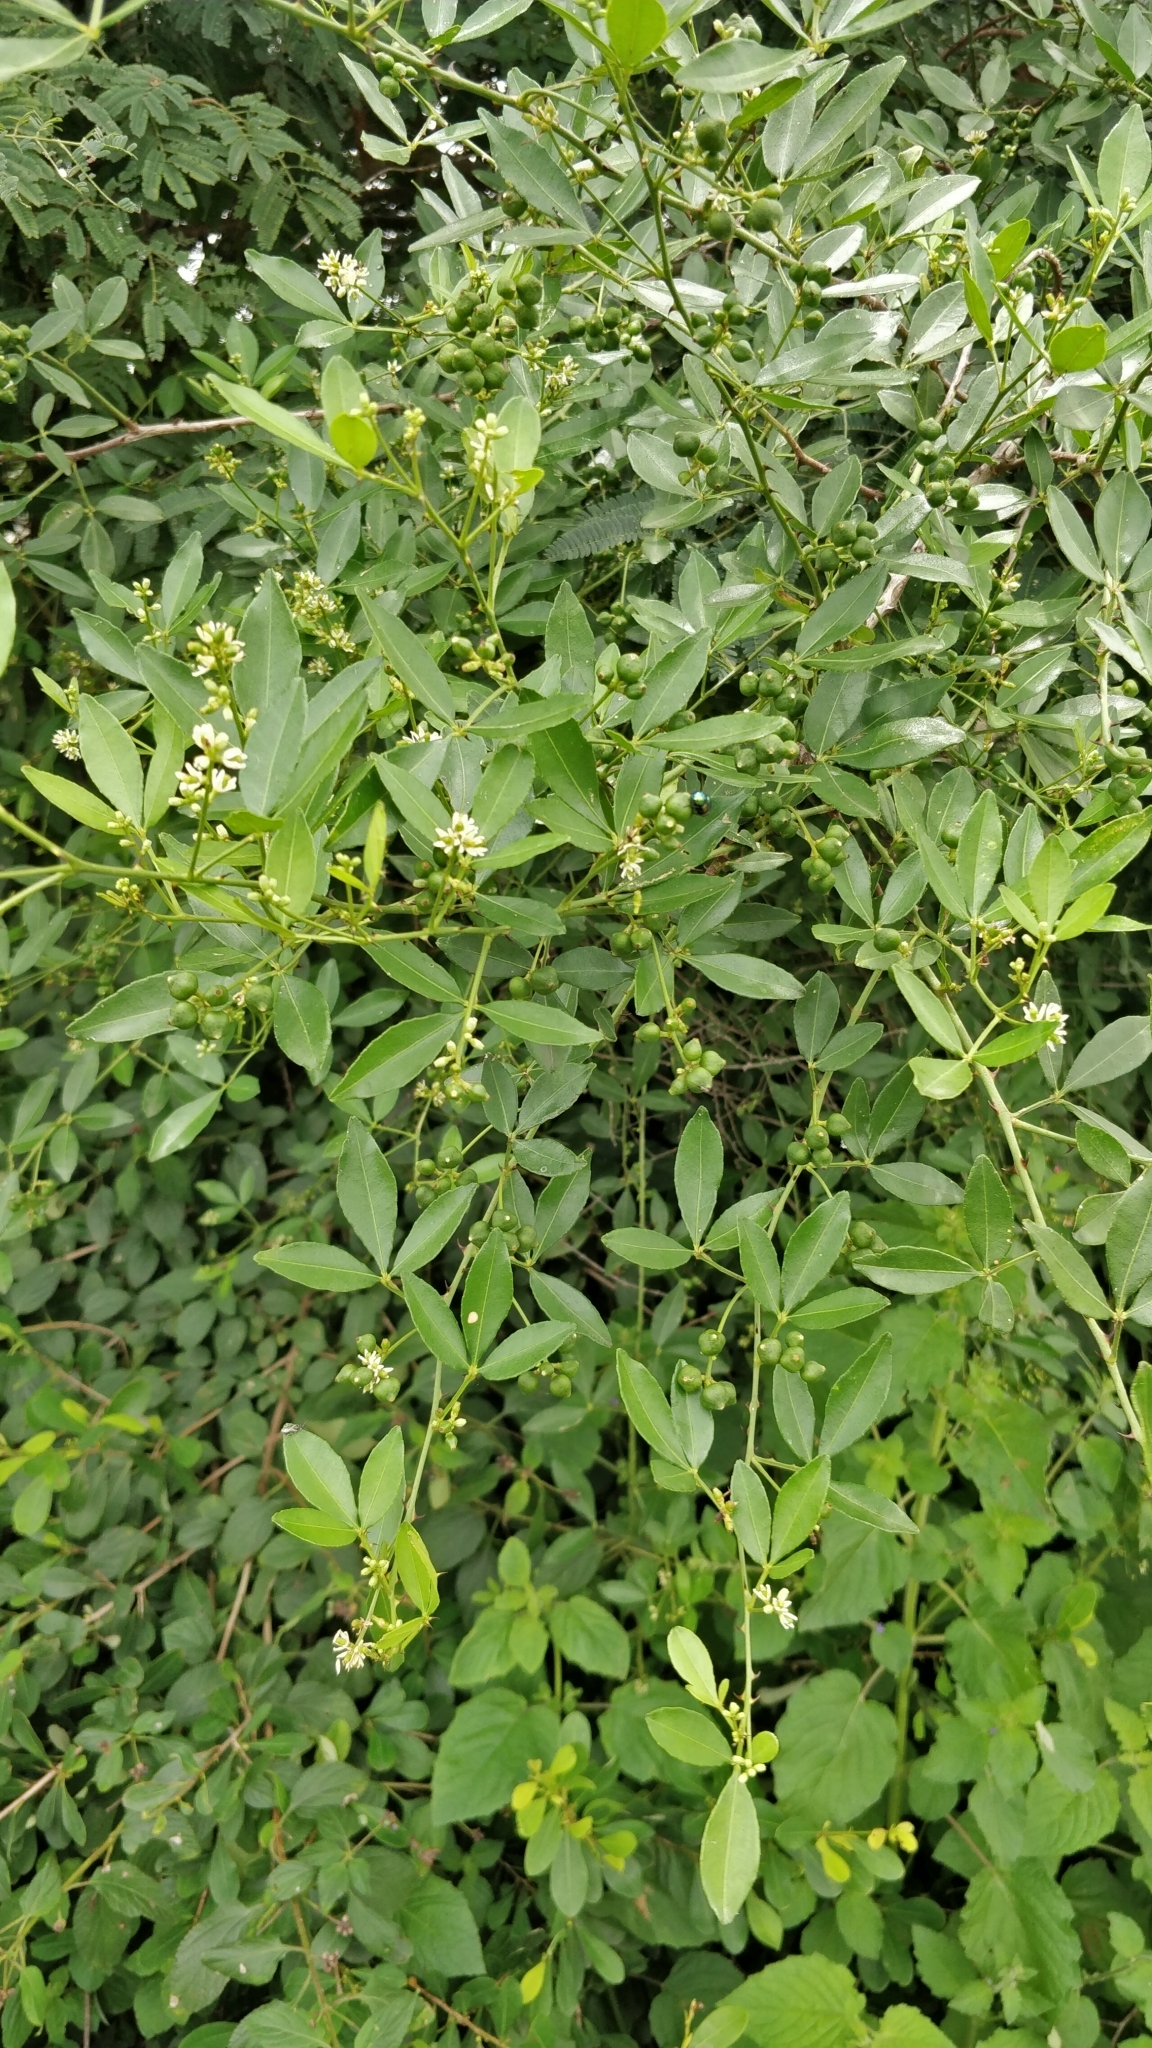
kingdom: Plantae
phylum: Tracheophyta
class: Magnoliopsida
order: Sapindales
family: Rutaceae
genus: Zanthoxylum
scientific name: Zanthoxylum asiaticum
